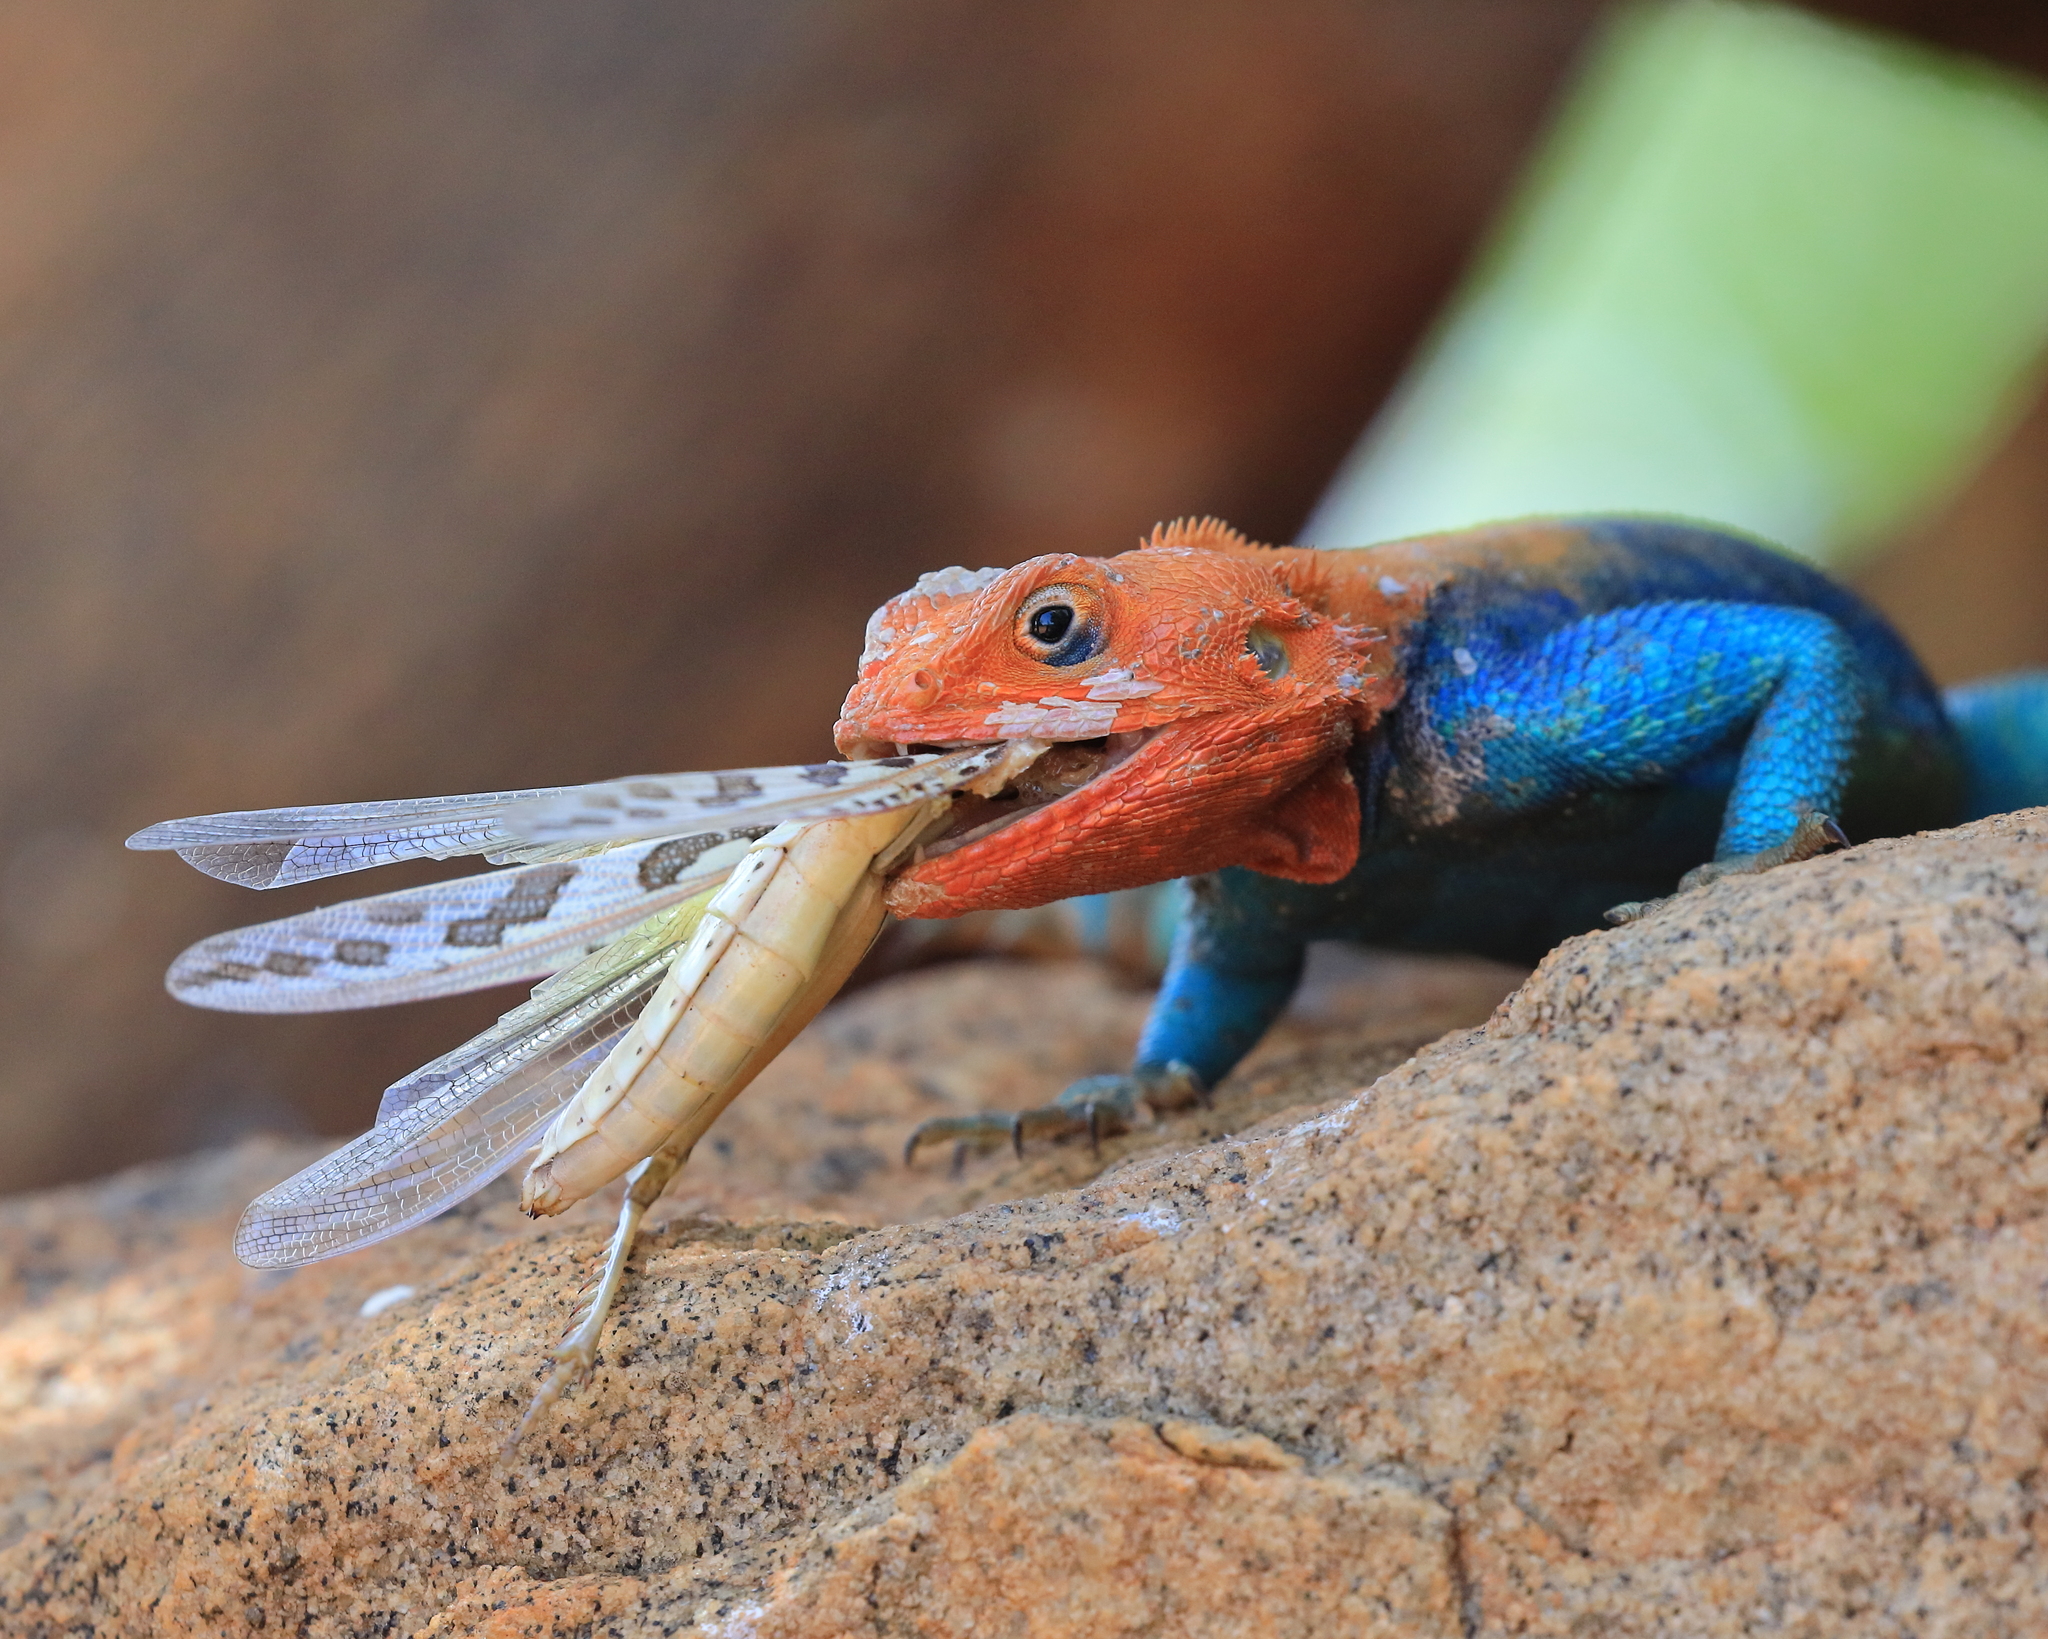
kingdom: Animalia
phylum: Chordata
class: Squamata
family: Agamidae
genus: Agama
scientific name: Agama lionotus
